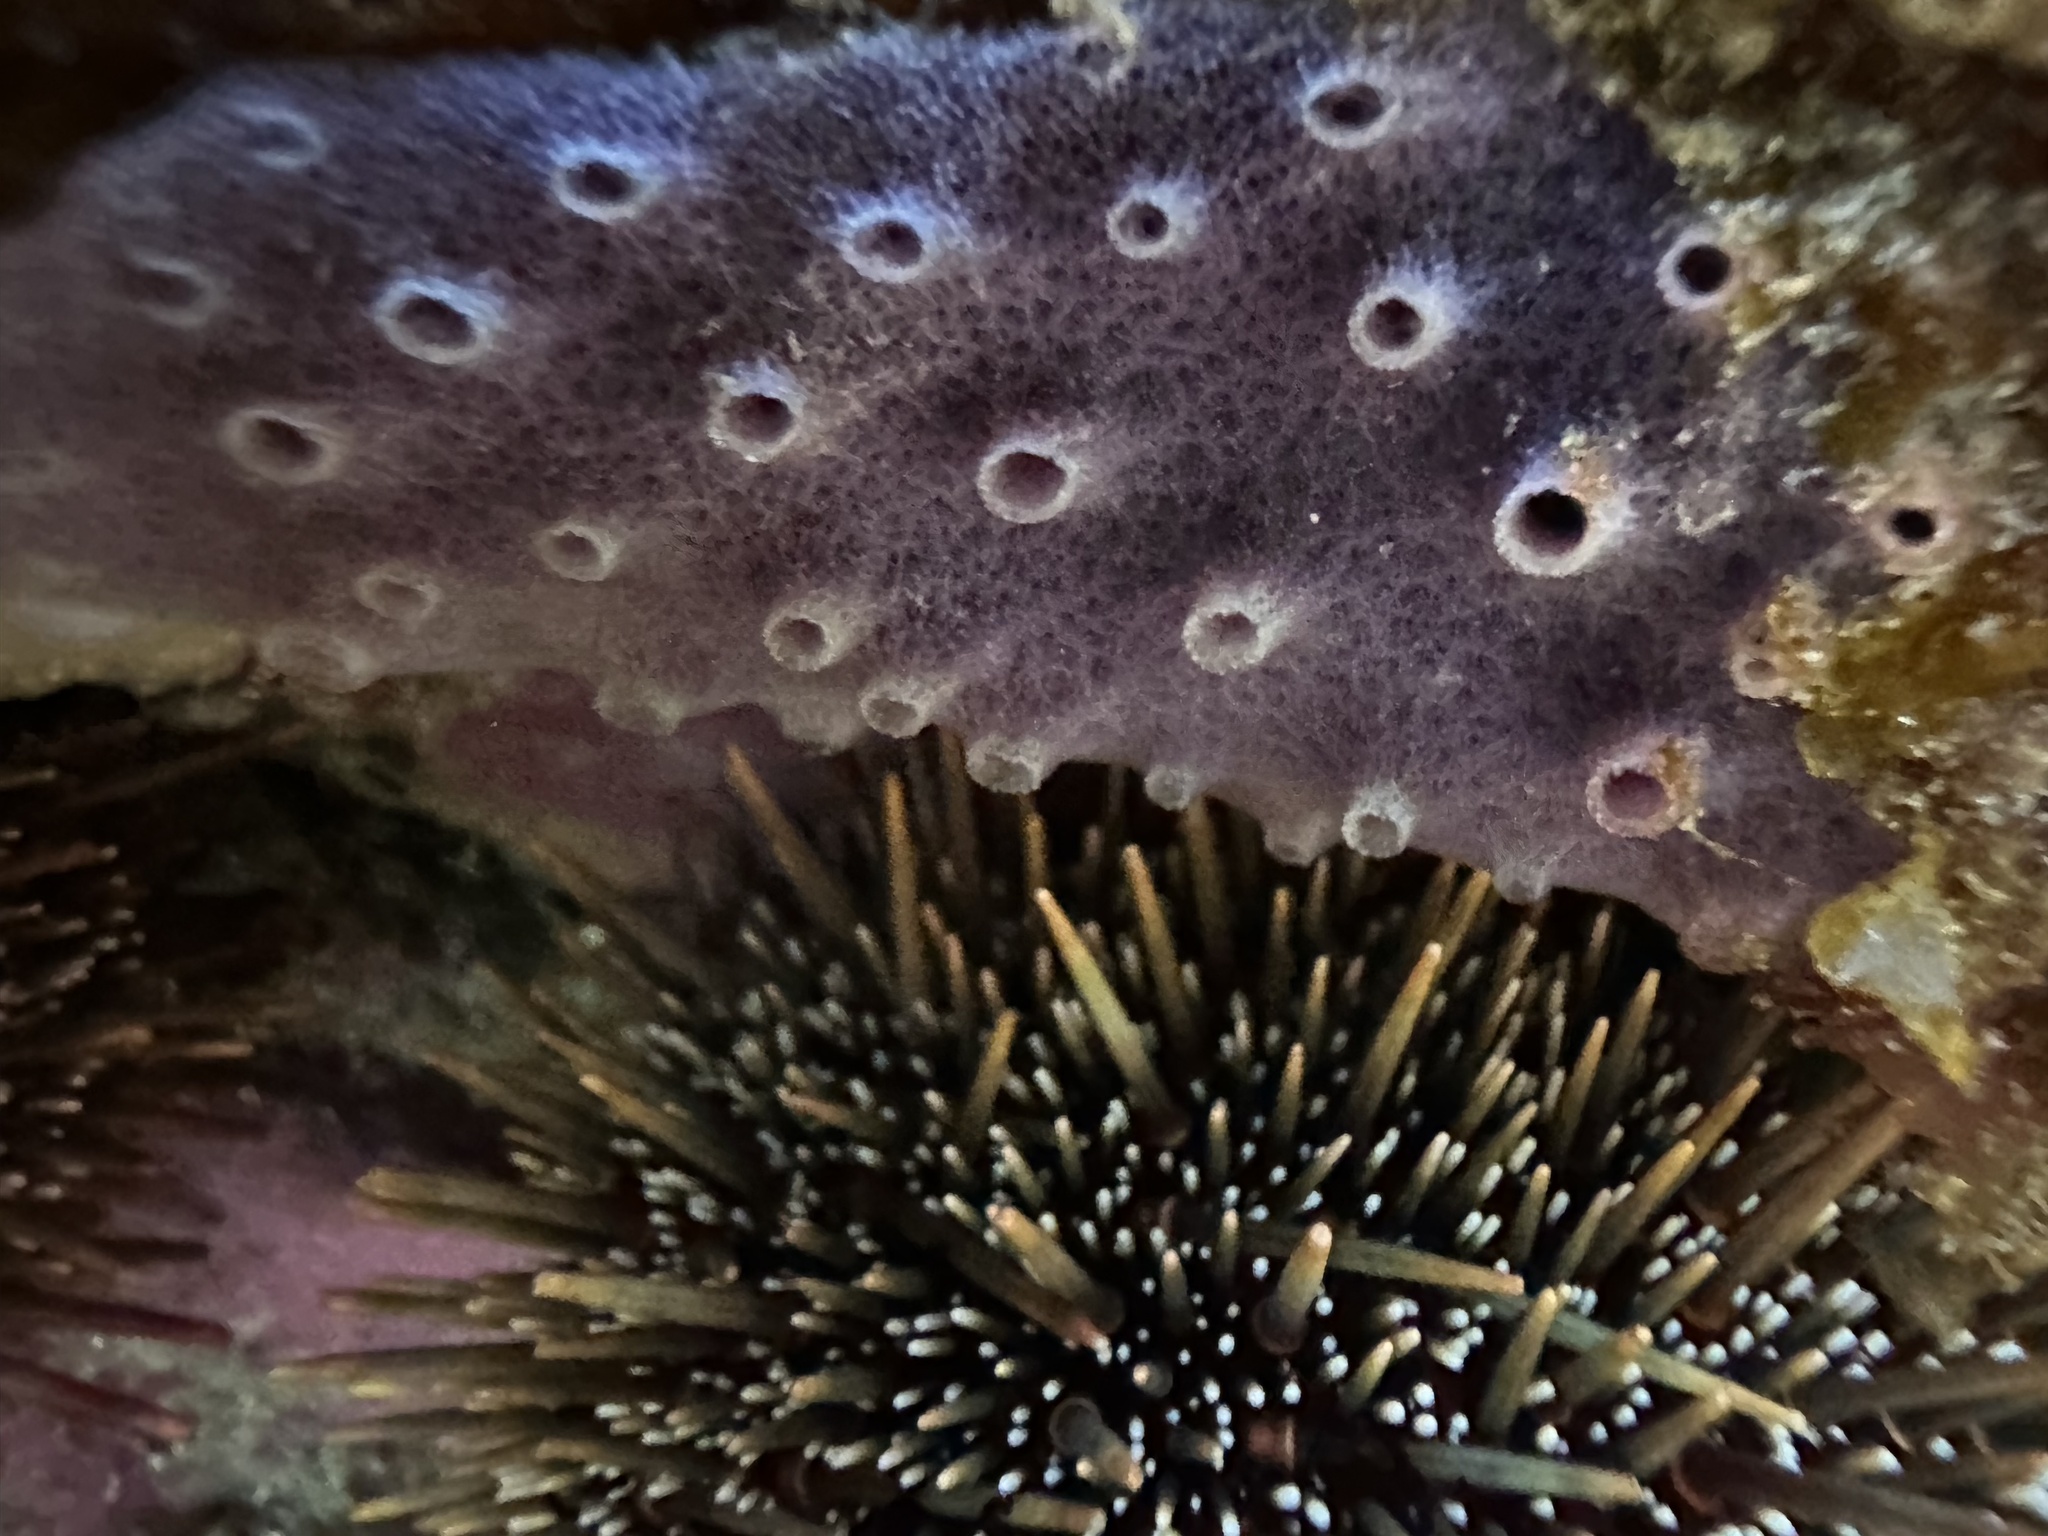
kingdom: Animalia
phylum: Porifera
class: Demospongiae
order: Haplosclerida
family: Chalinidae
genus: Haliclona
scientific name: Haliclona venustina
